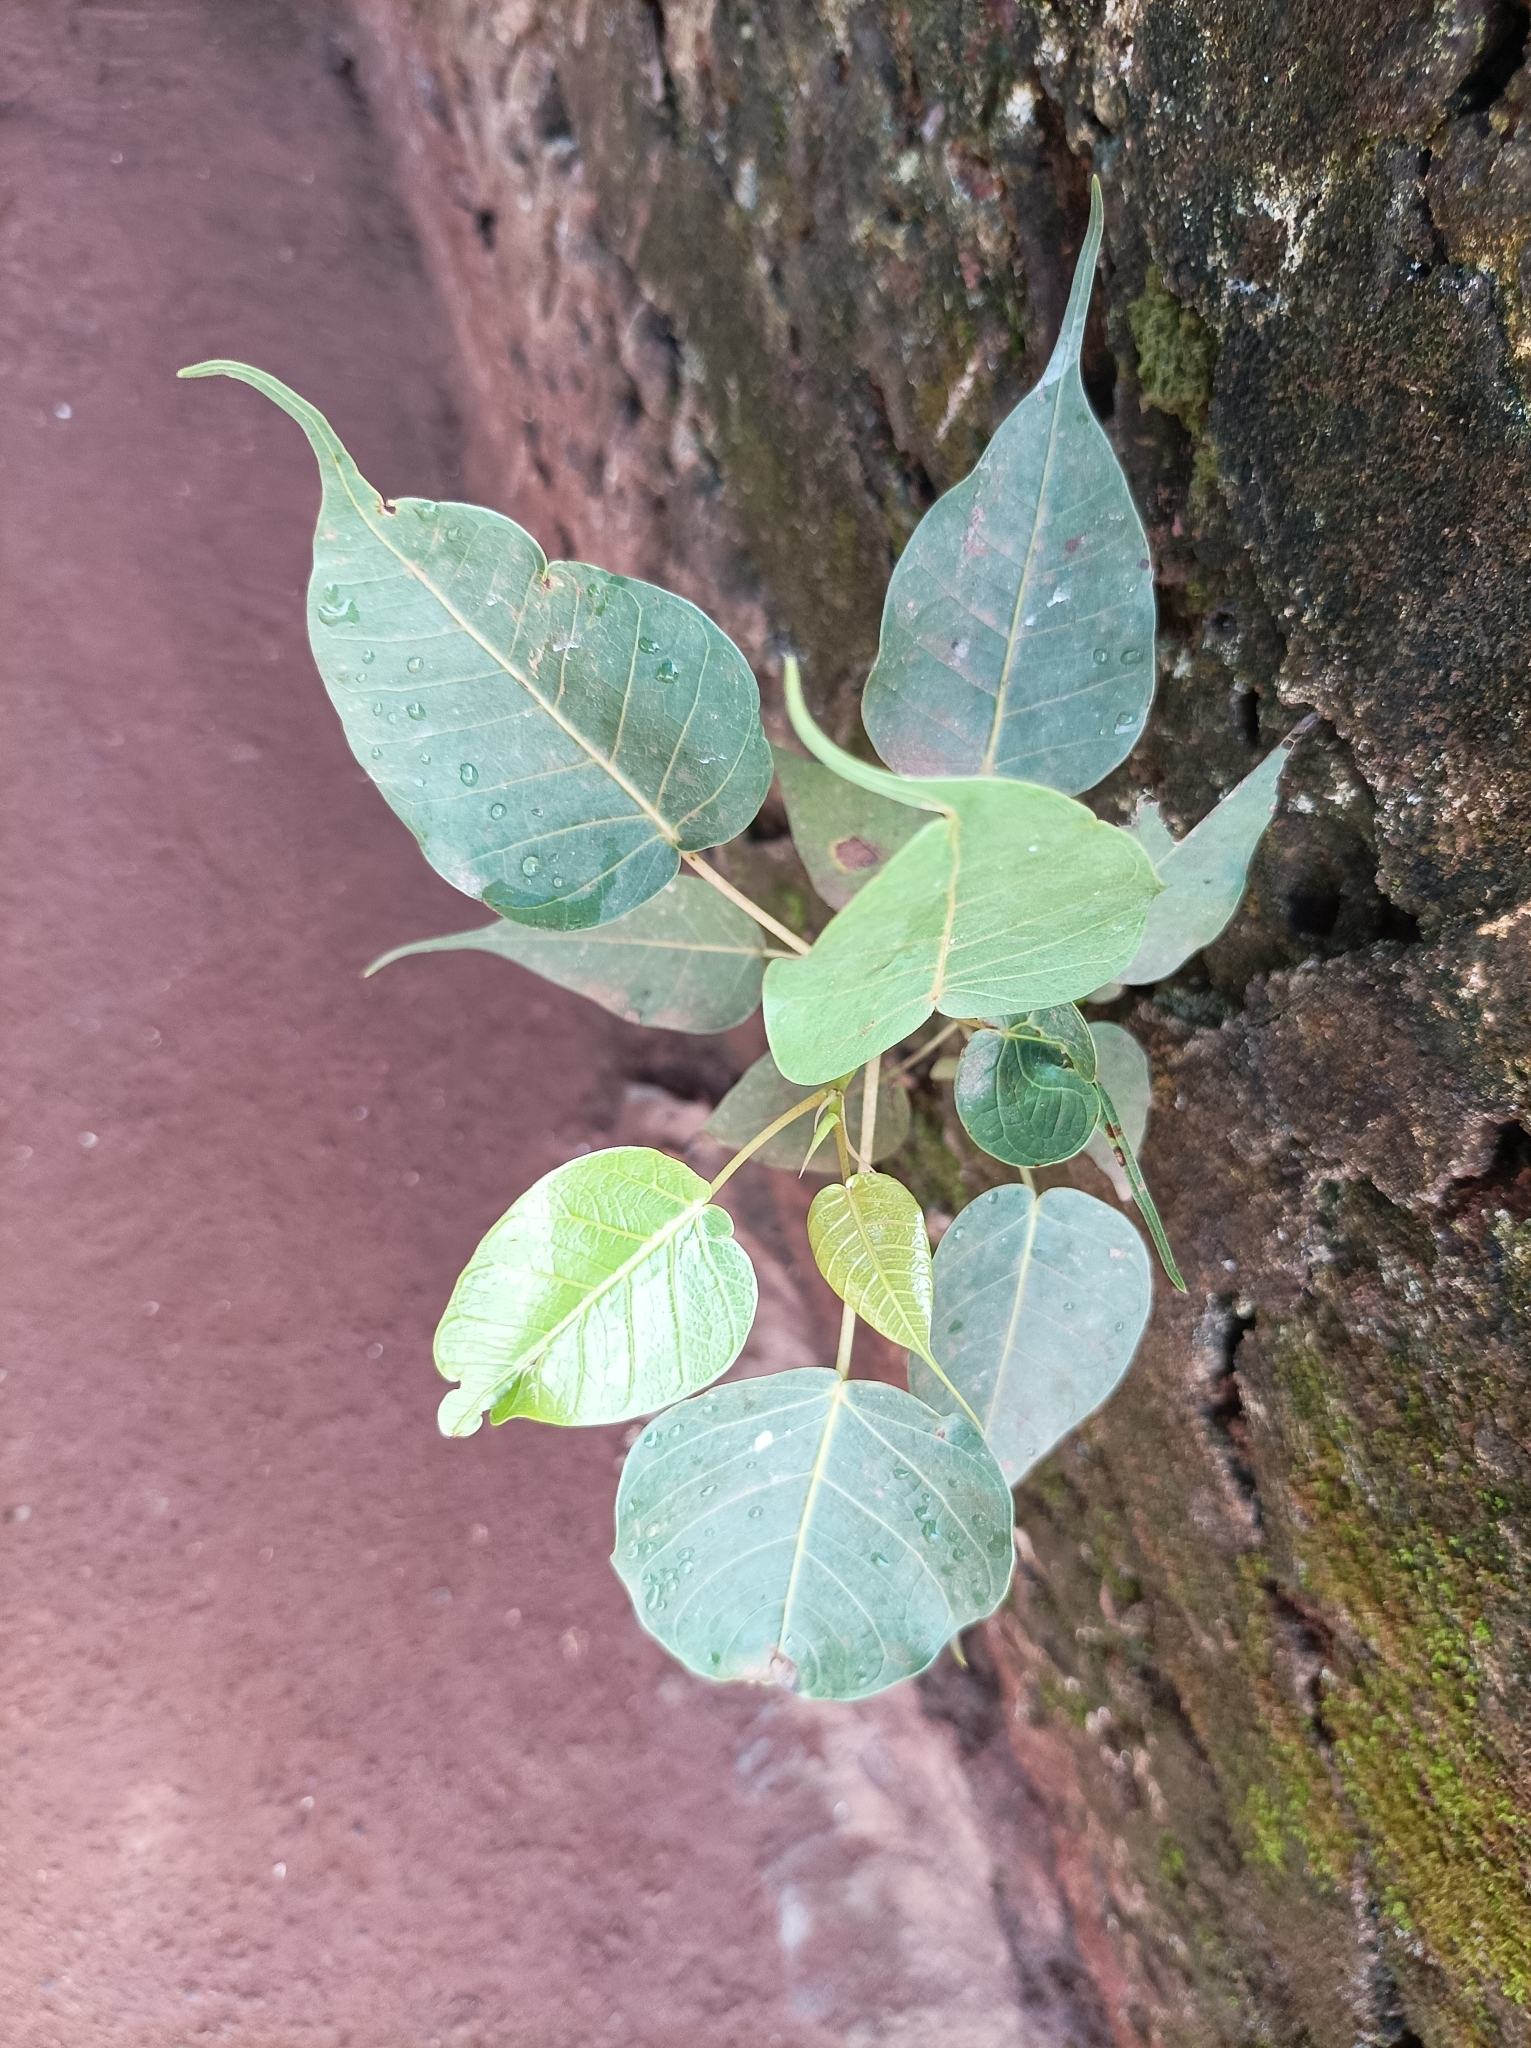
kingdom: Plantae
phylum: Tracheophyta
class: Magnoliopsida
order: Rosales
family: Moraceae
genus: Ficus
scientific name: Ficus religiosa
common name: Bodhi tree
